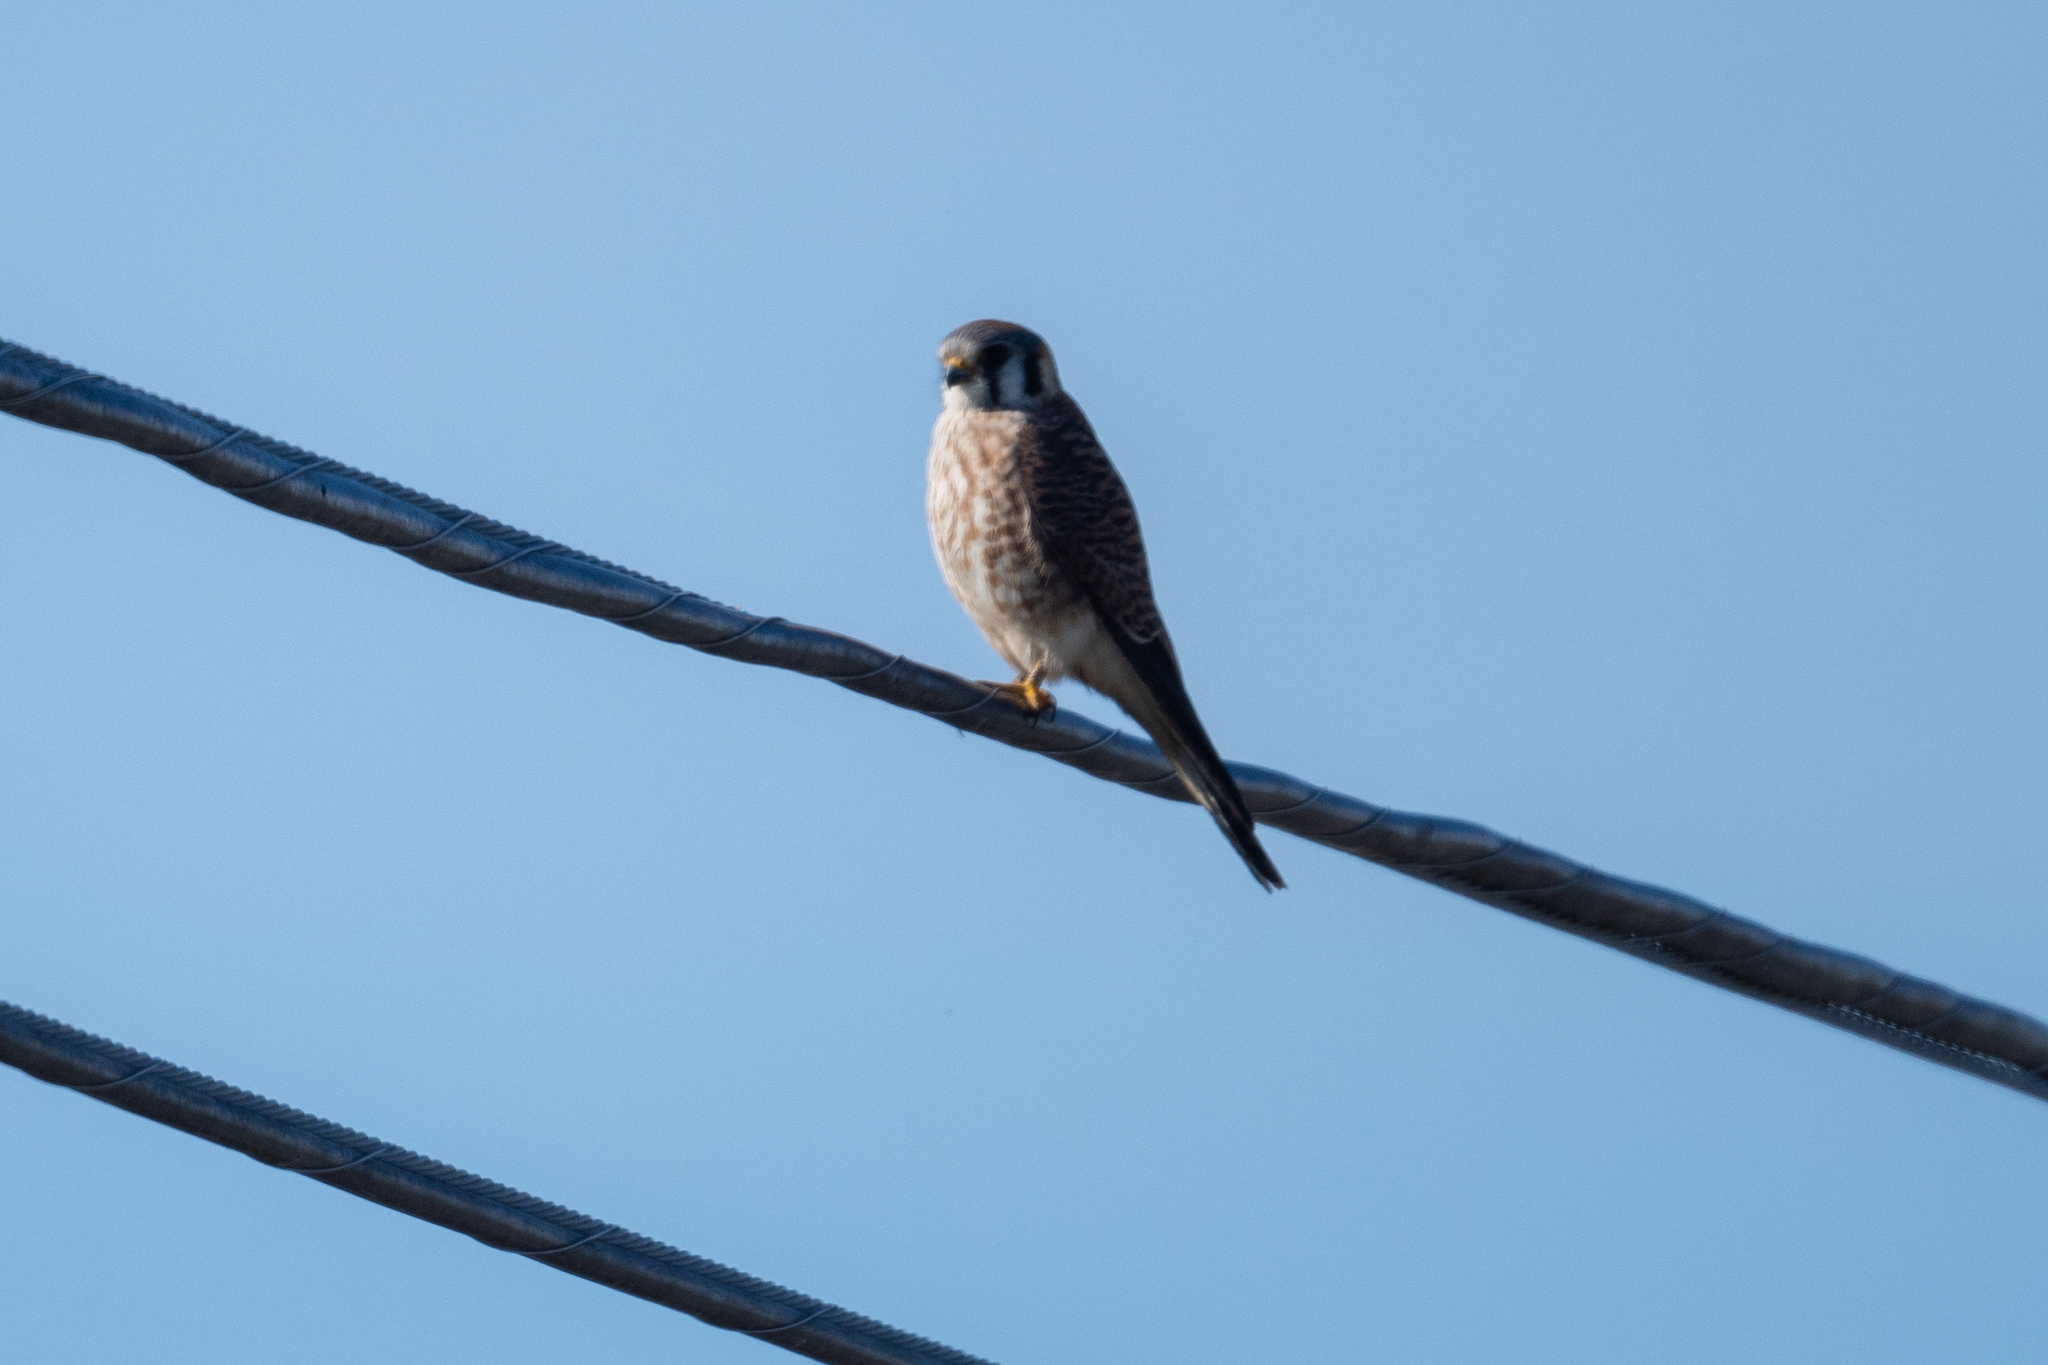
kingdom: Animalia
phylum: Chordata
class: Aves
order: Falconiformes
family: Falconidae
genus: Falco
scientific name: Falco sparverius
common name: American kestrel
